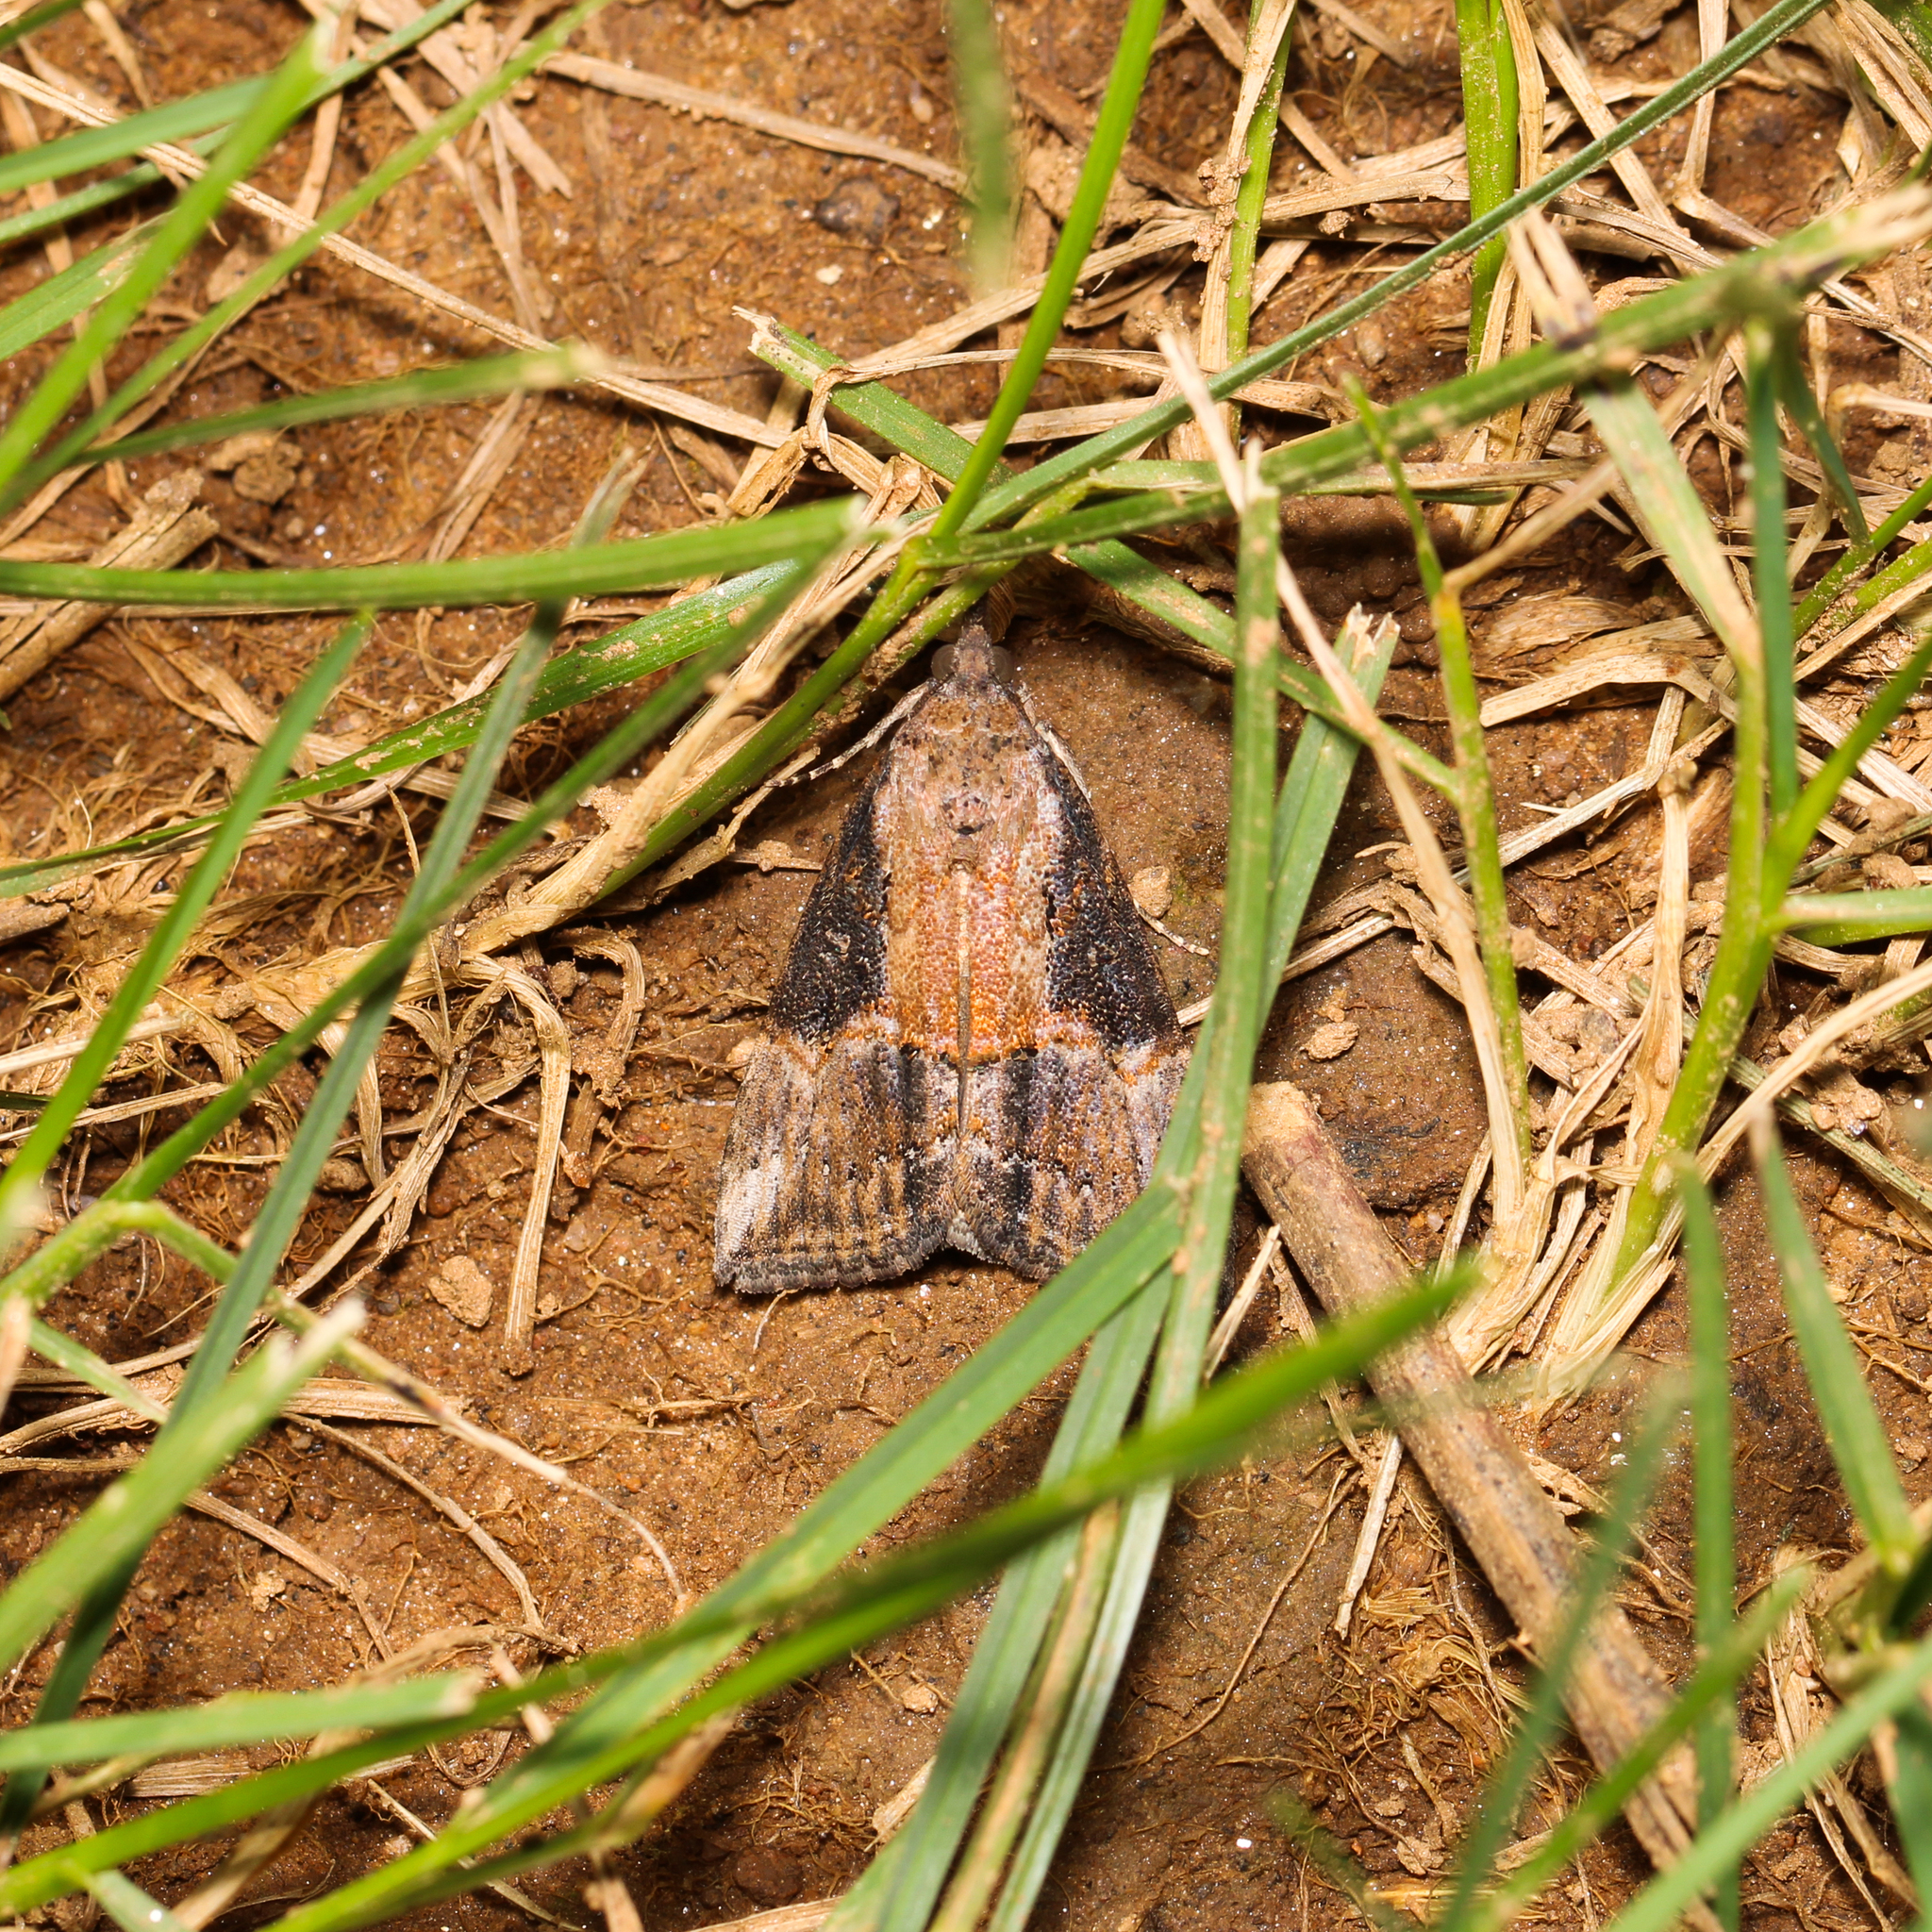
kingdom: Animalia
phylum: Arthropoda
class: Insecta
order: Lepidoptera
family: Erebidae
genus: Hypena
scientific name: Hypena scabra
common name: Green cloverworm
